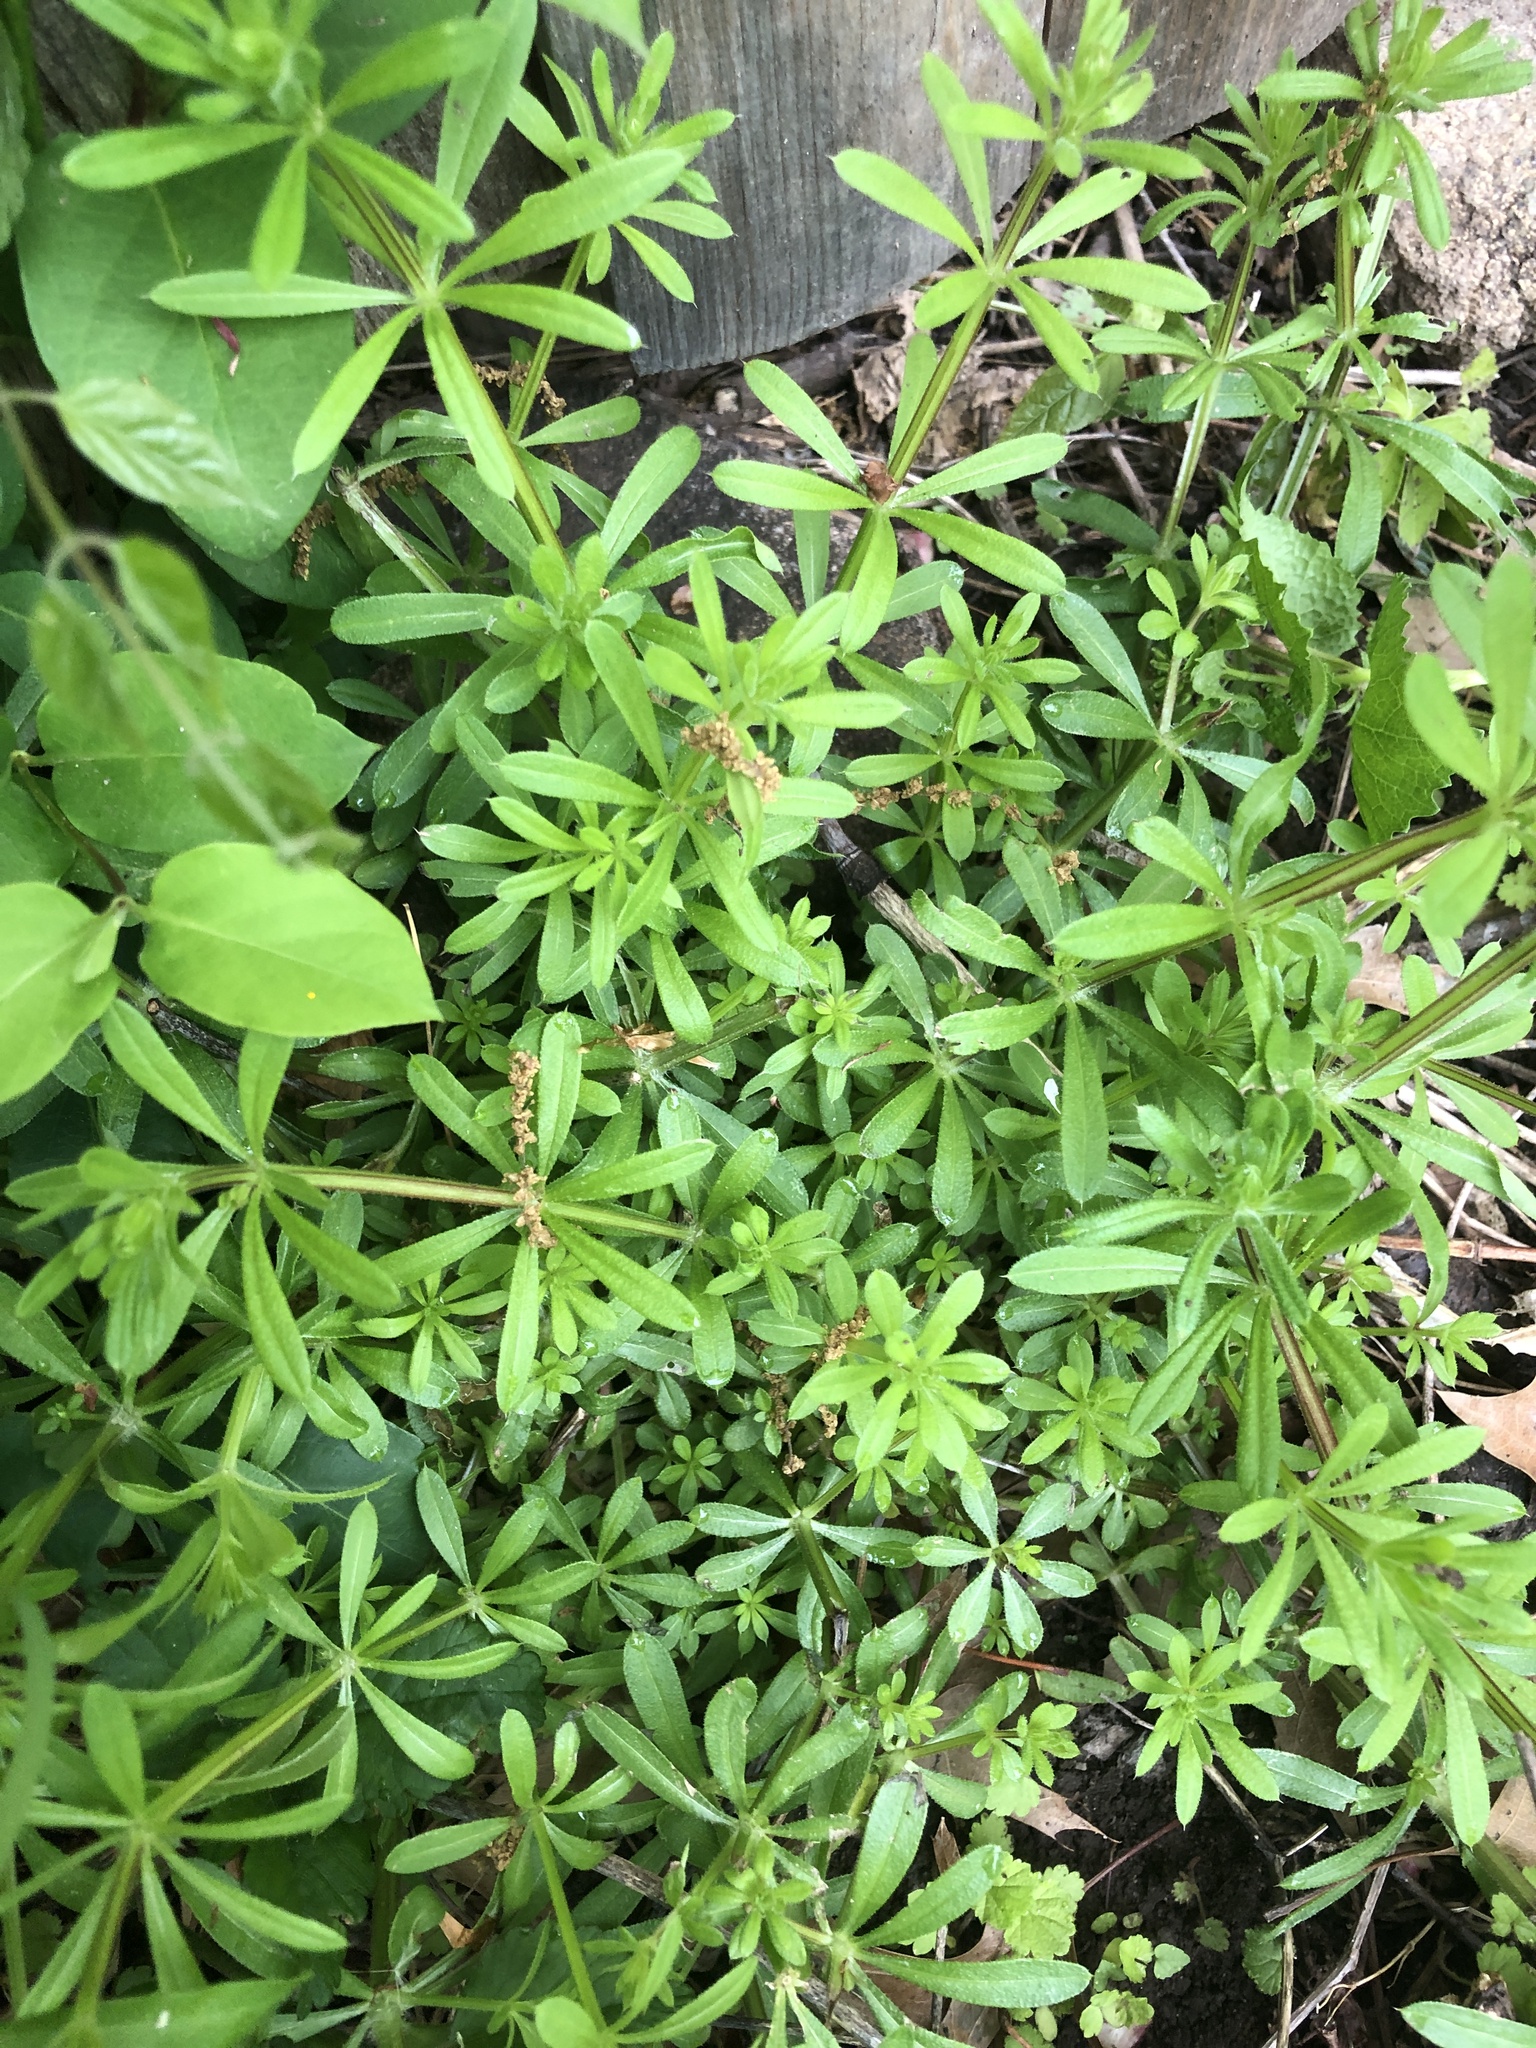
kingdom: Plantae
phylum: Tracheophyta
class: Magnoliopsida
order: Gentianales
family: Rubiaceae
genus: Galium
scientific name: Galium aparine
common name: Cleavers
